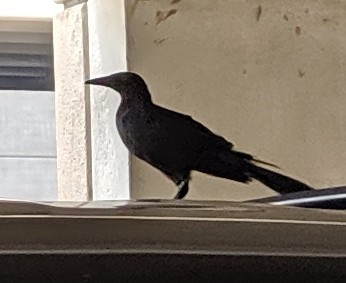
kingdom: Animalia
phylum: Chordata
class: Aves
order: Passeriformes
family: Icteridae
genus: Quiscalus
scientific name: Quiscalus mexicanus
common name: Great-tailed grackle
